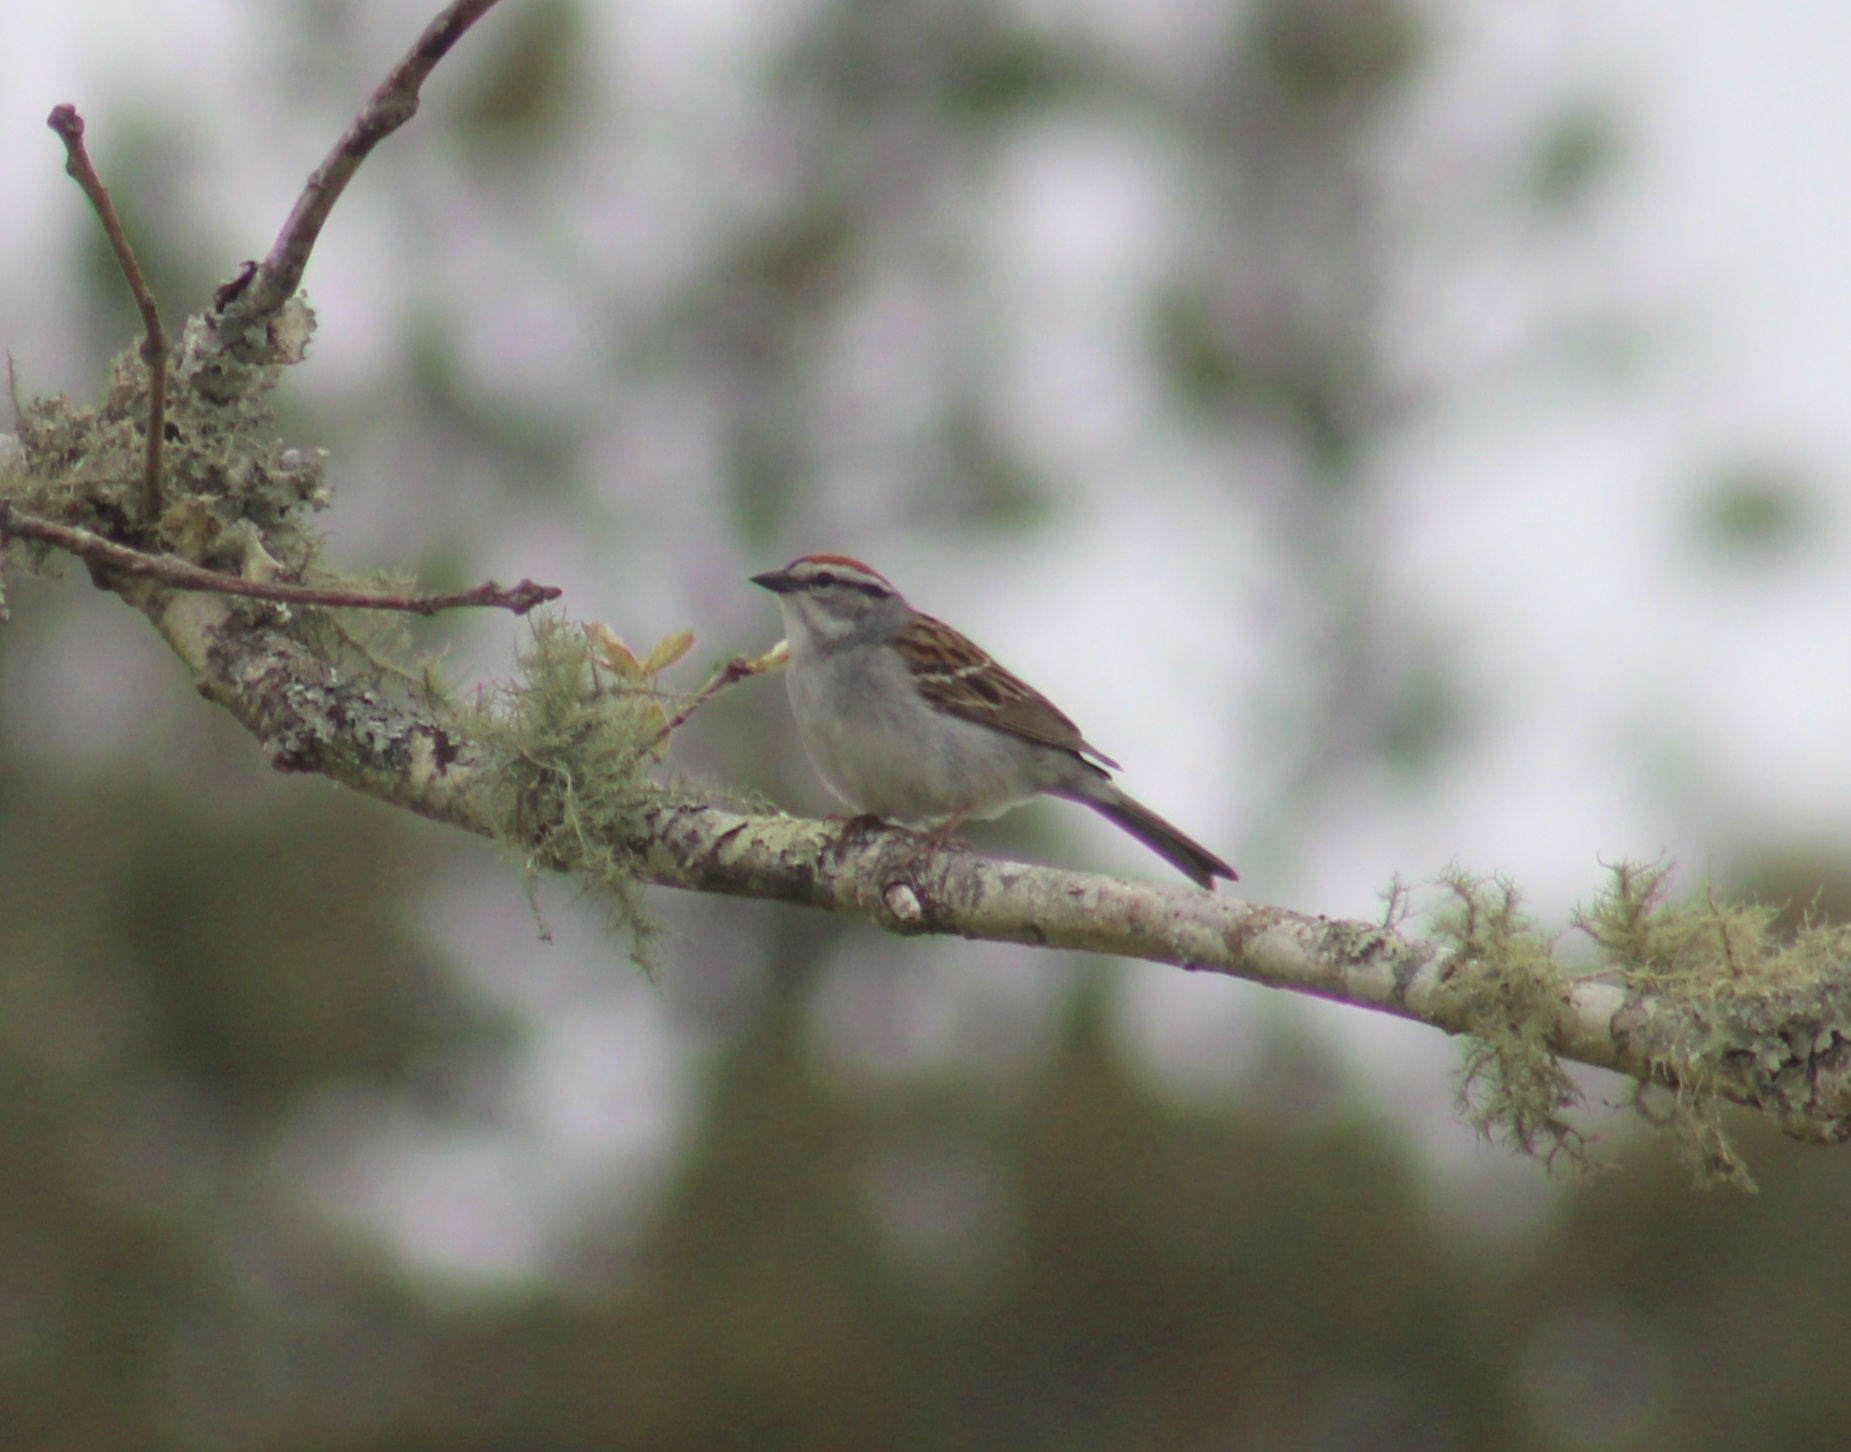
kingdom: Animalia
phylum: Chordata
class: Aves
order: Passeriformes
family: Passerellidae
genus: Spizella
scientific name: Spizella passerina
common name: Chipping sparrow
